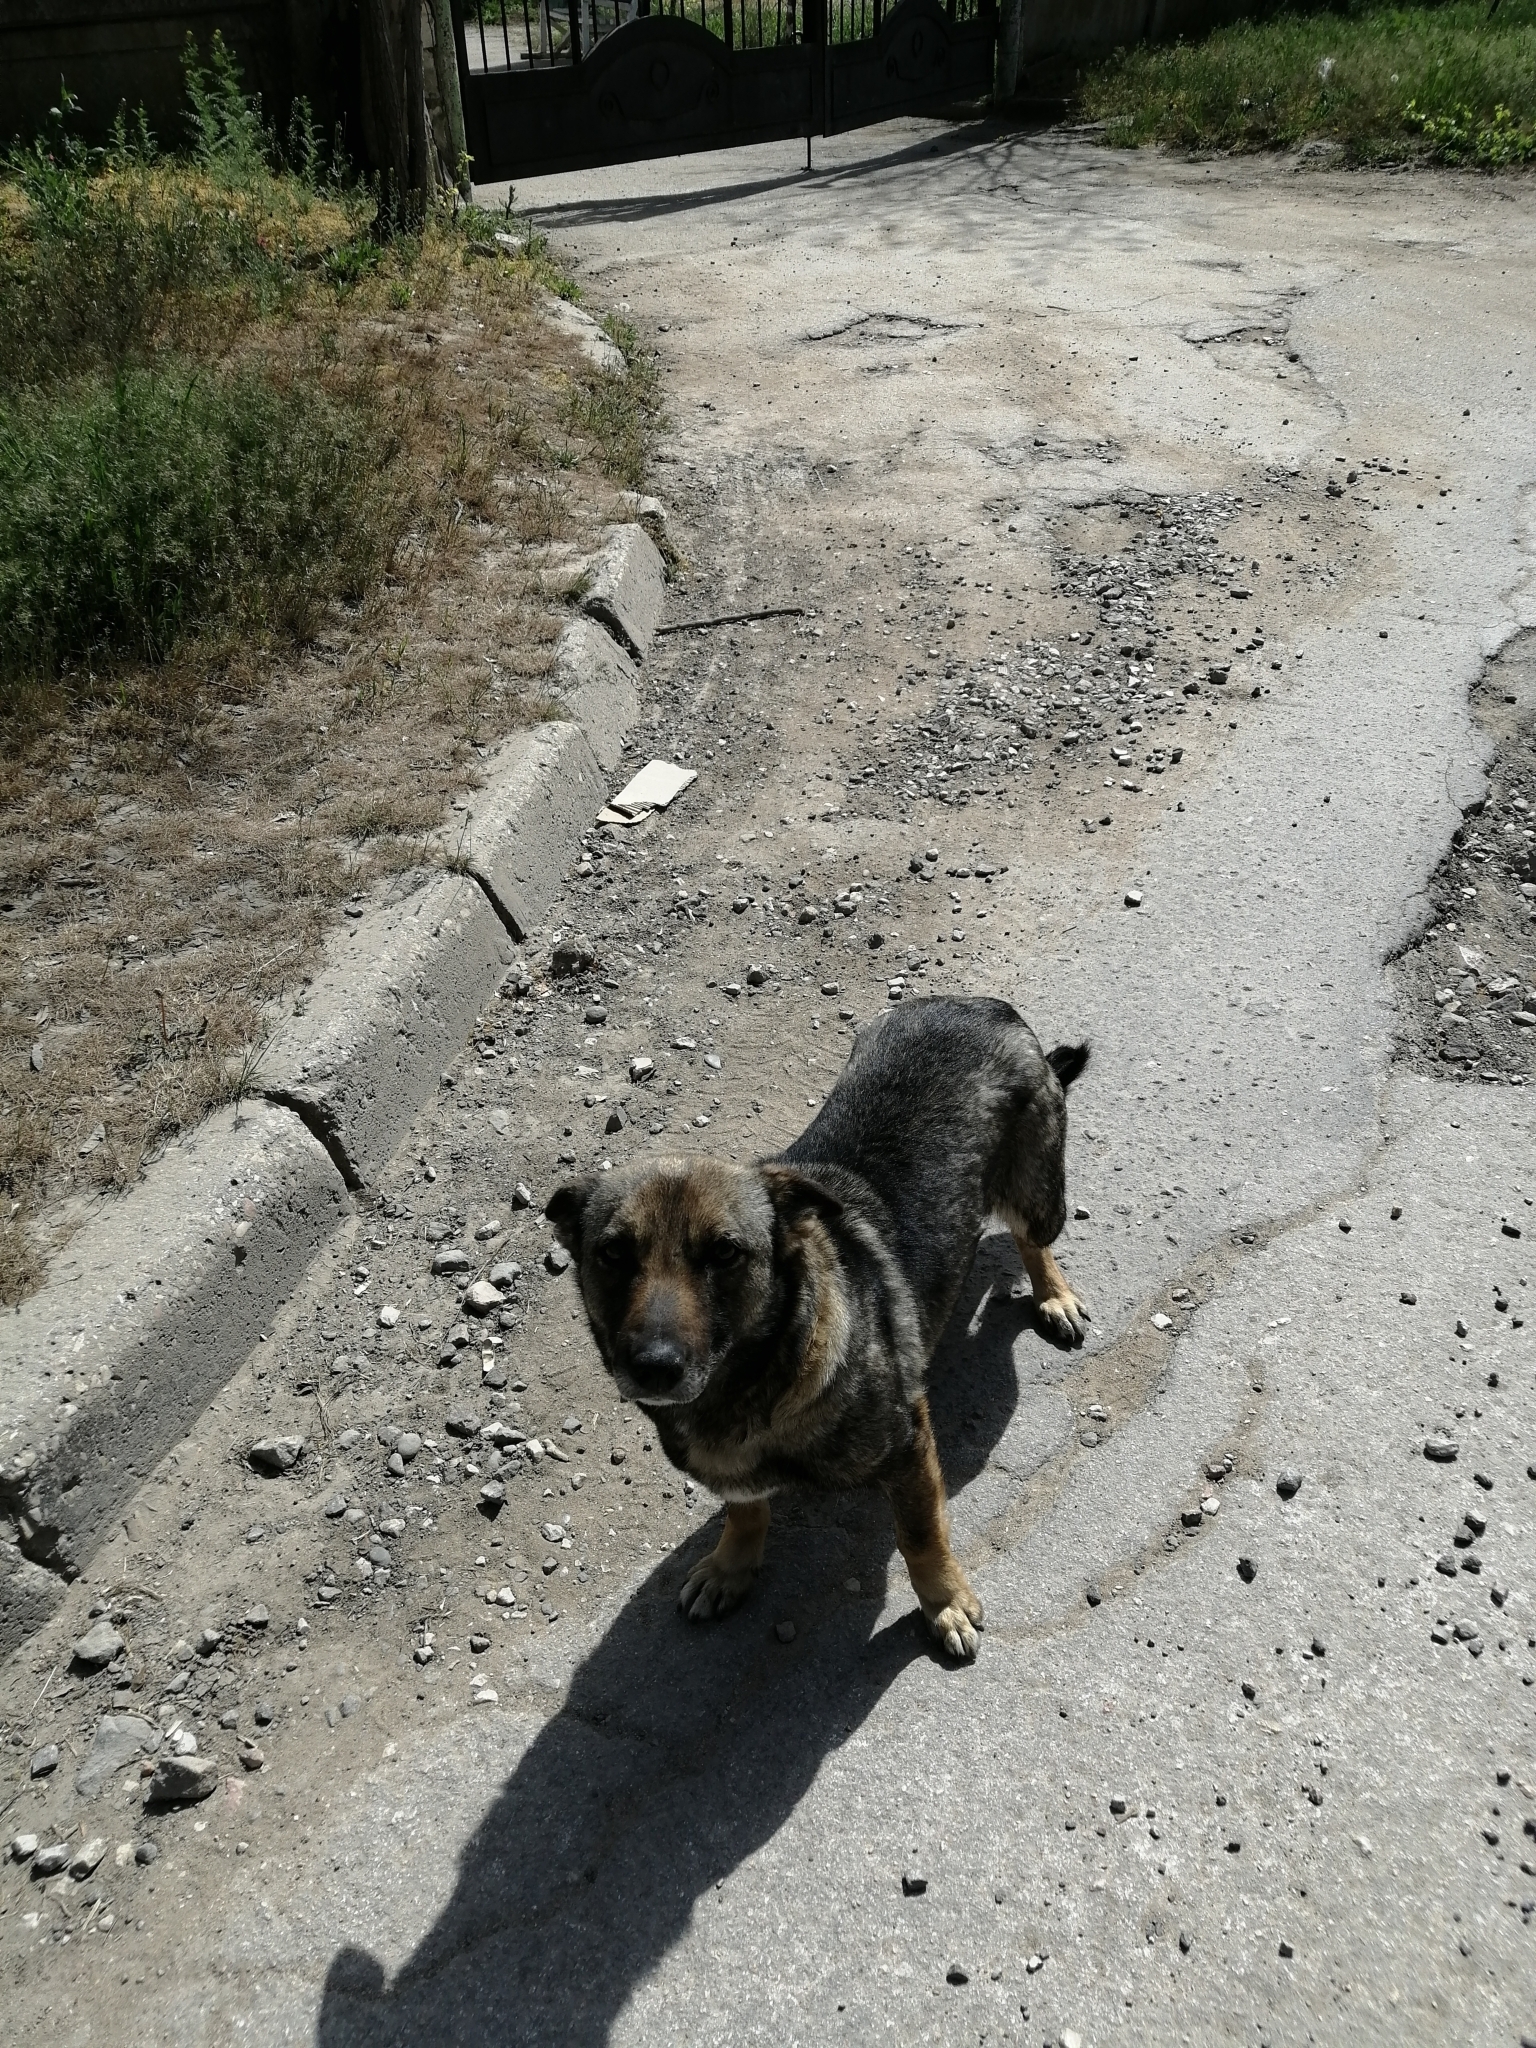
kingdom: Animalia
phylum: Chordata
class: Mammalia
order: Carnivora
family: Canidae
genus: Canis
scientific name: Canis lupus
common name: Gray wolf
